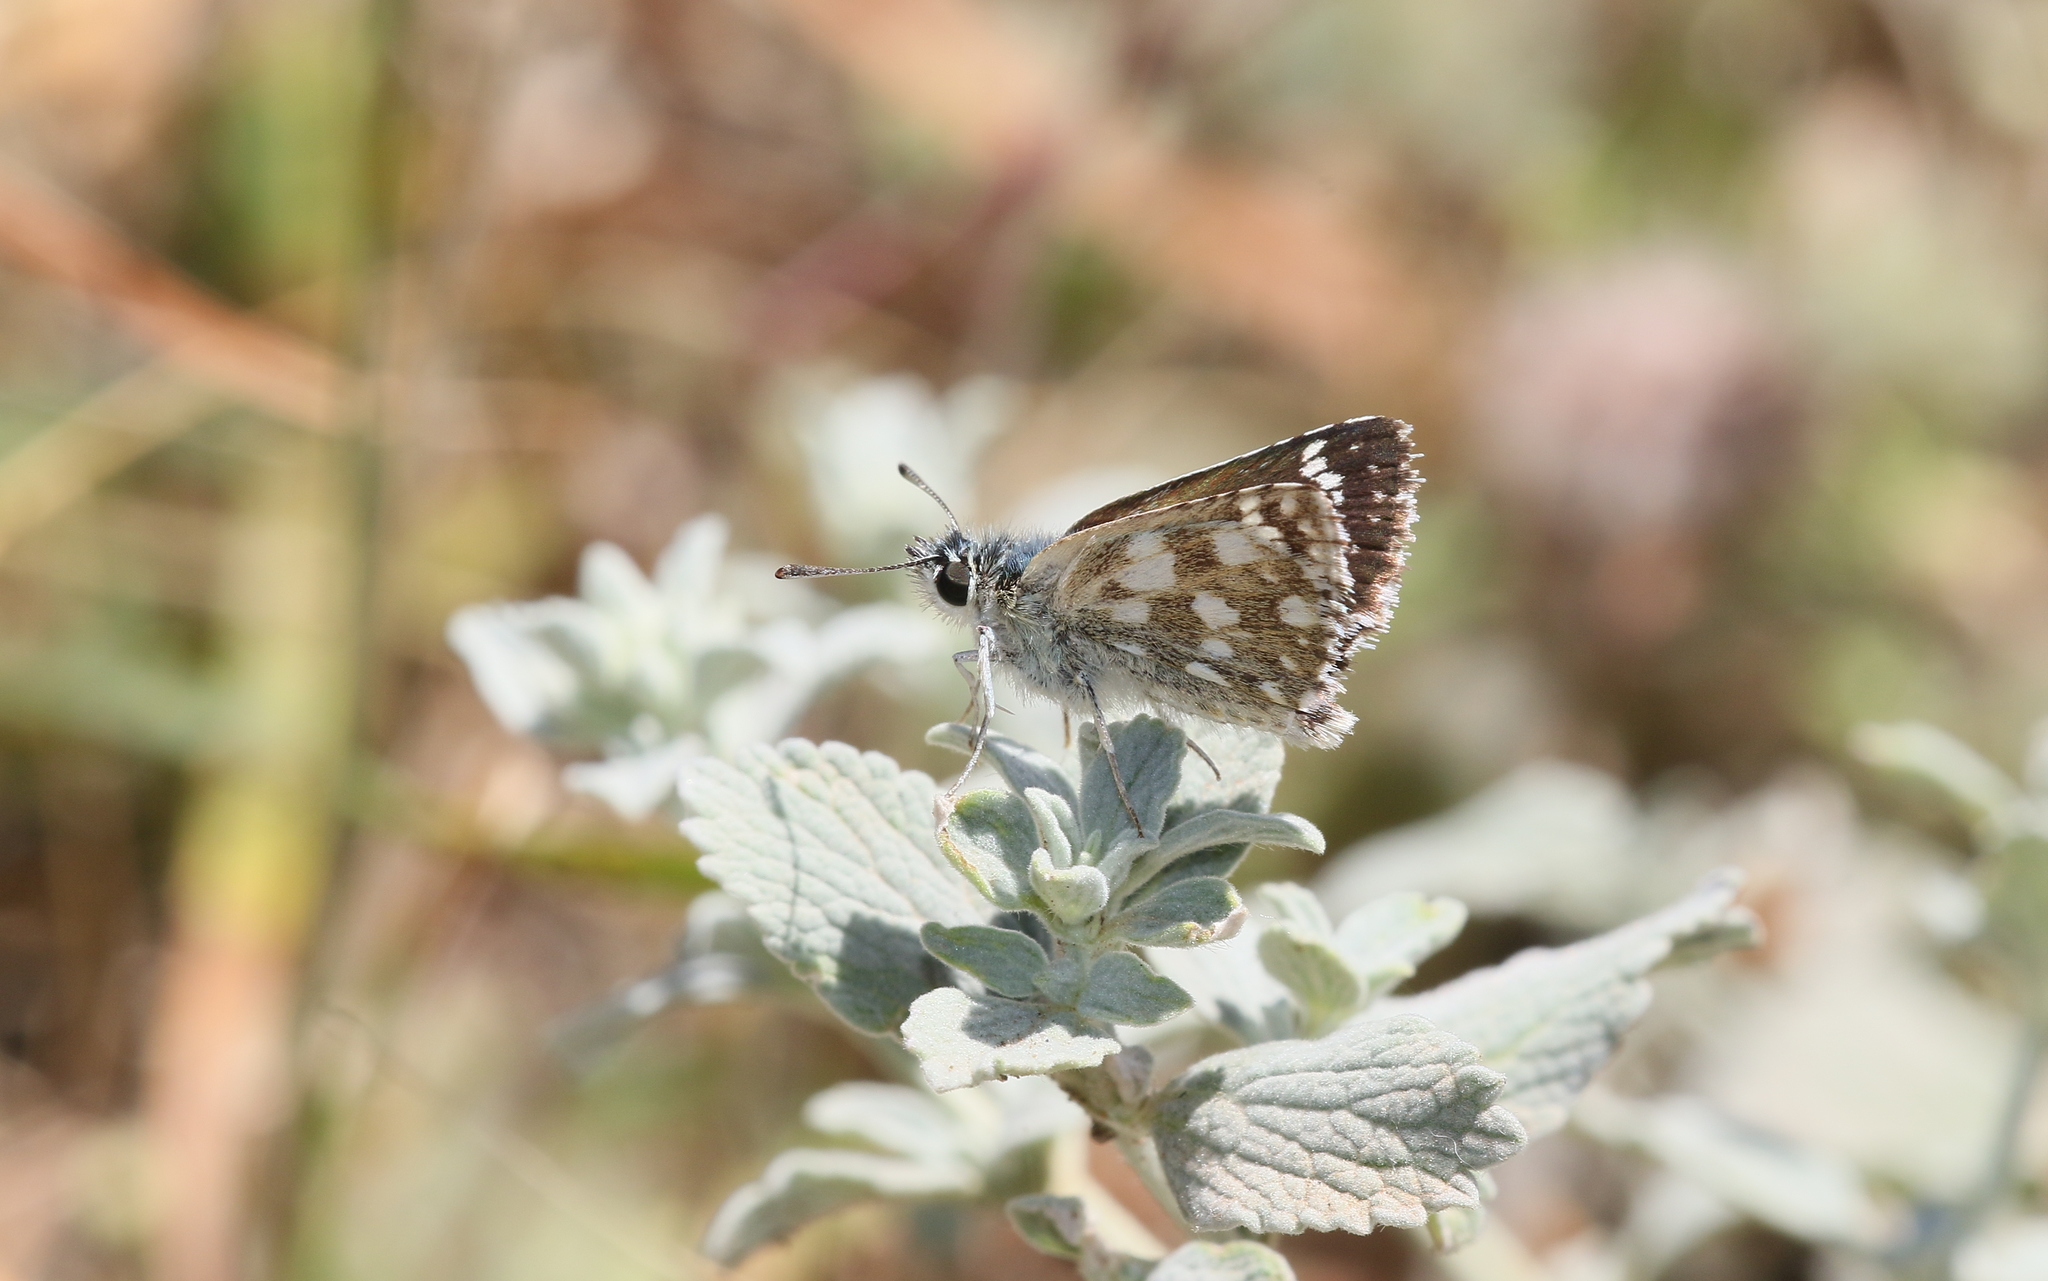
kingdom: Animalia
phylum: Arthropoda
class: Insecta
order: Lepidoptera
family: Hesperiidae
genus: Spialia
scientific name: Spialia sertorius
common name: Red underwing skipper
